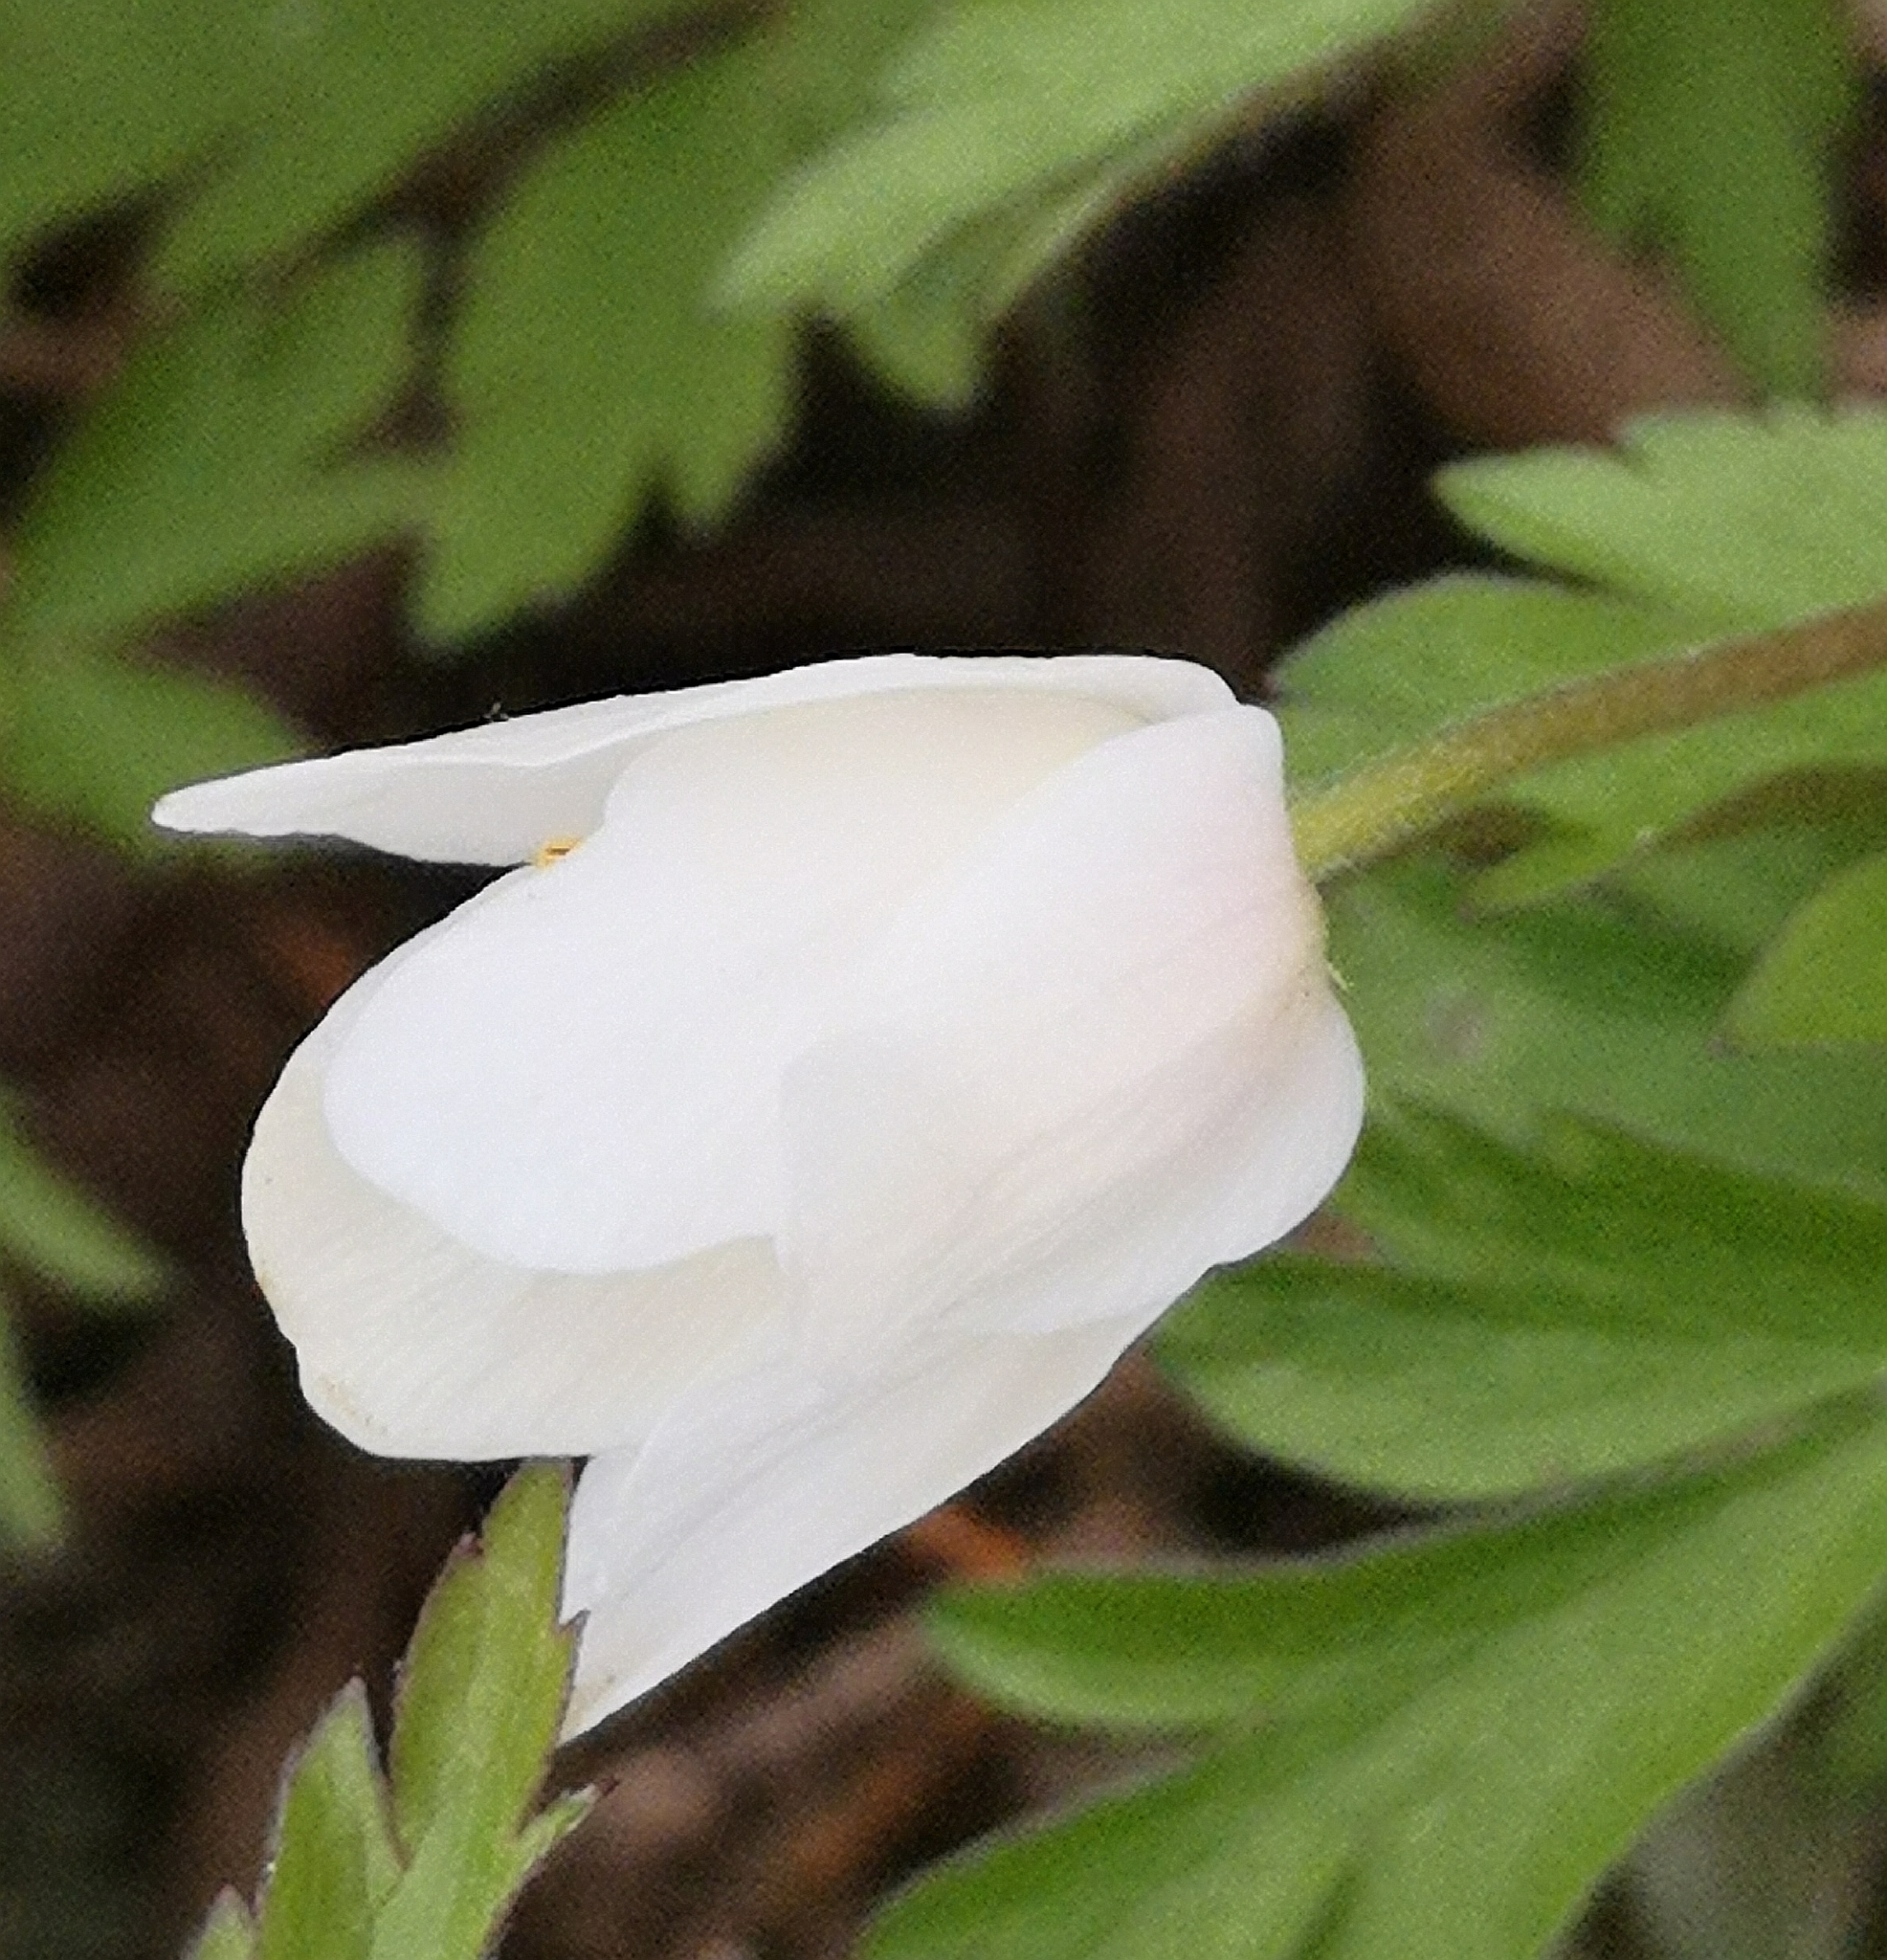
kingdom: Plantae
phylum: Tracheophyta
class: Magnoliopsida
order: Ranunculales
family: Ranunculaceae
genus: Anemone
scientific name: Anemone nemorosa
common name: Wood anemone
